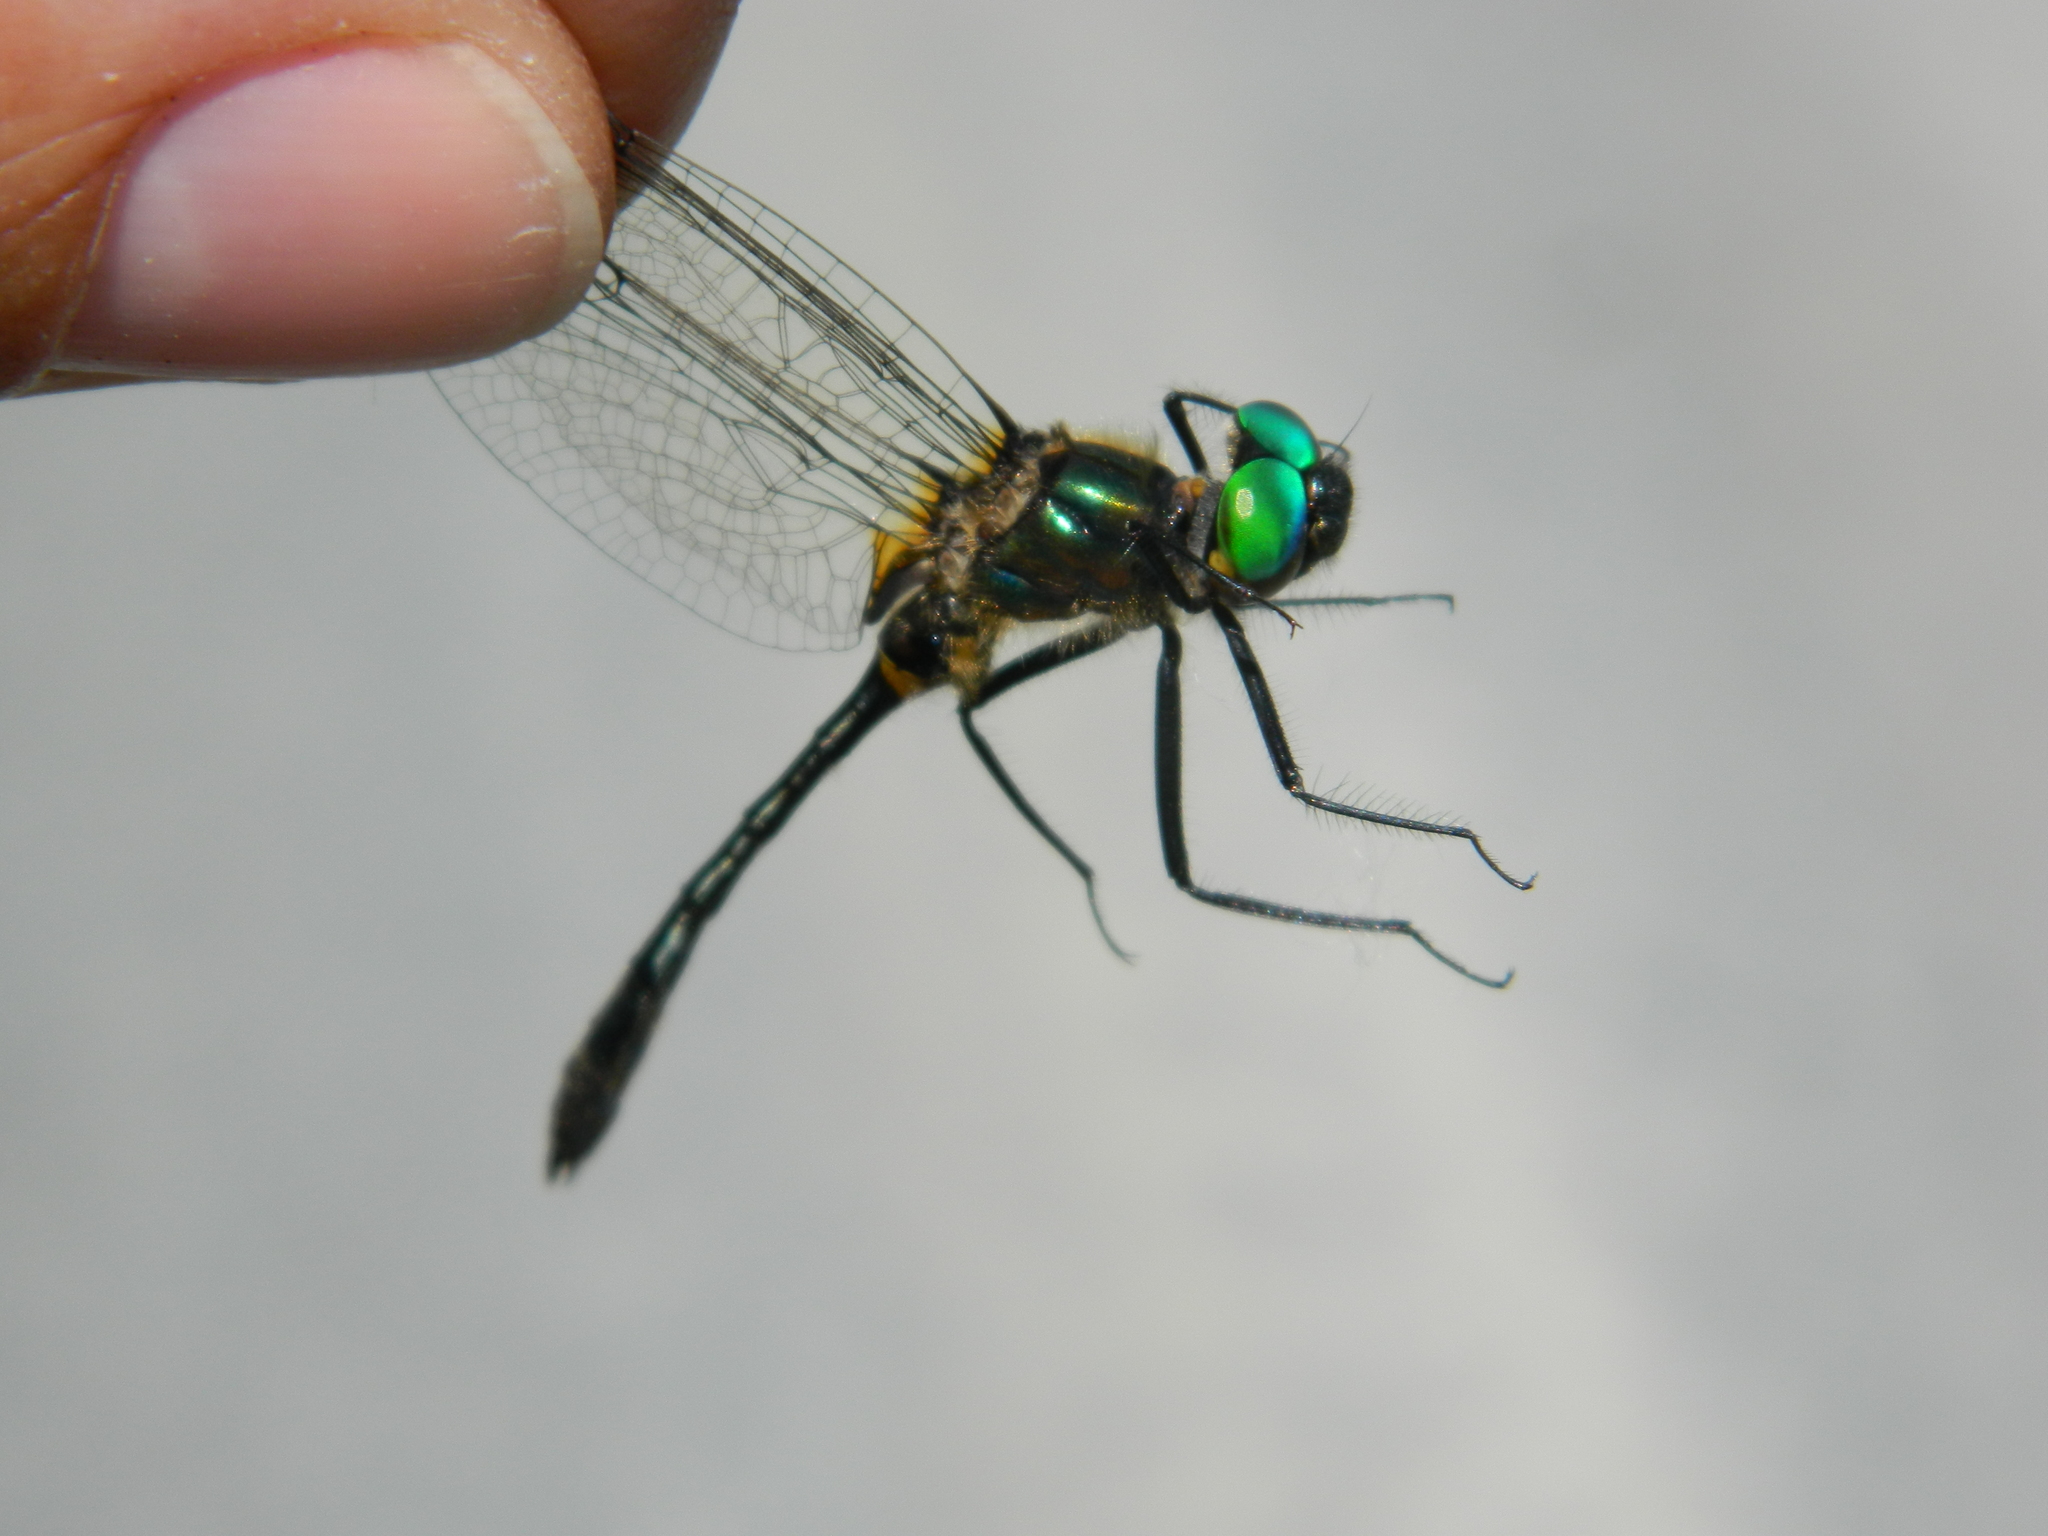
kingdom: Animalia
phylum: Arthropoda
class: Insecta
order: Odonata
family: Corduliidae
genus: Dorocordulia
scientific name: Dorocordulia libera
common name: Racket-tailed emerald
